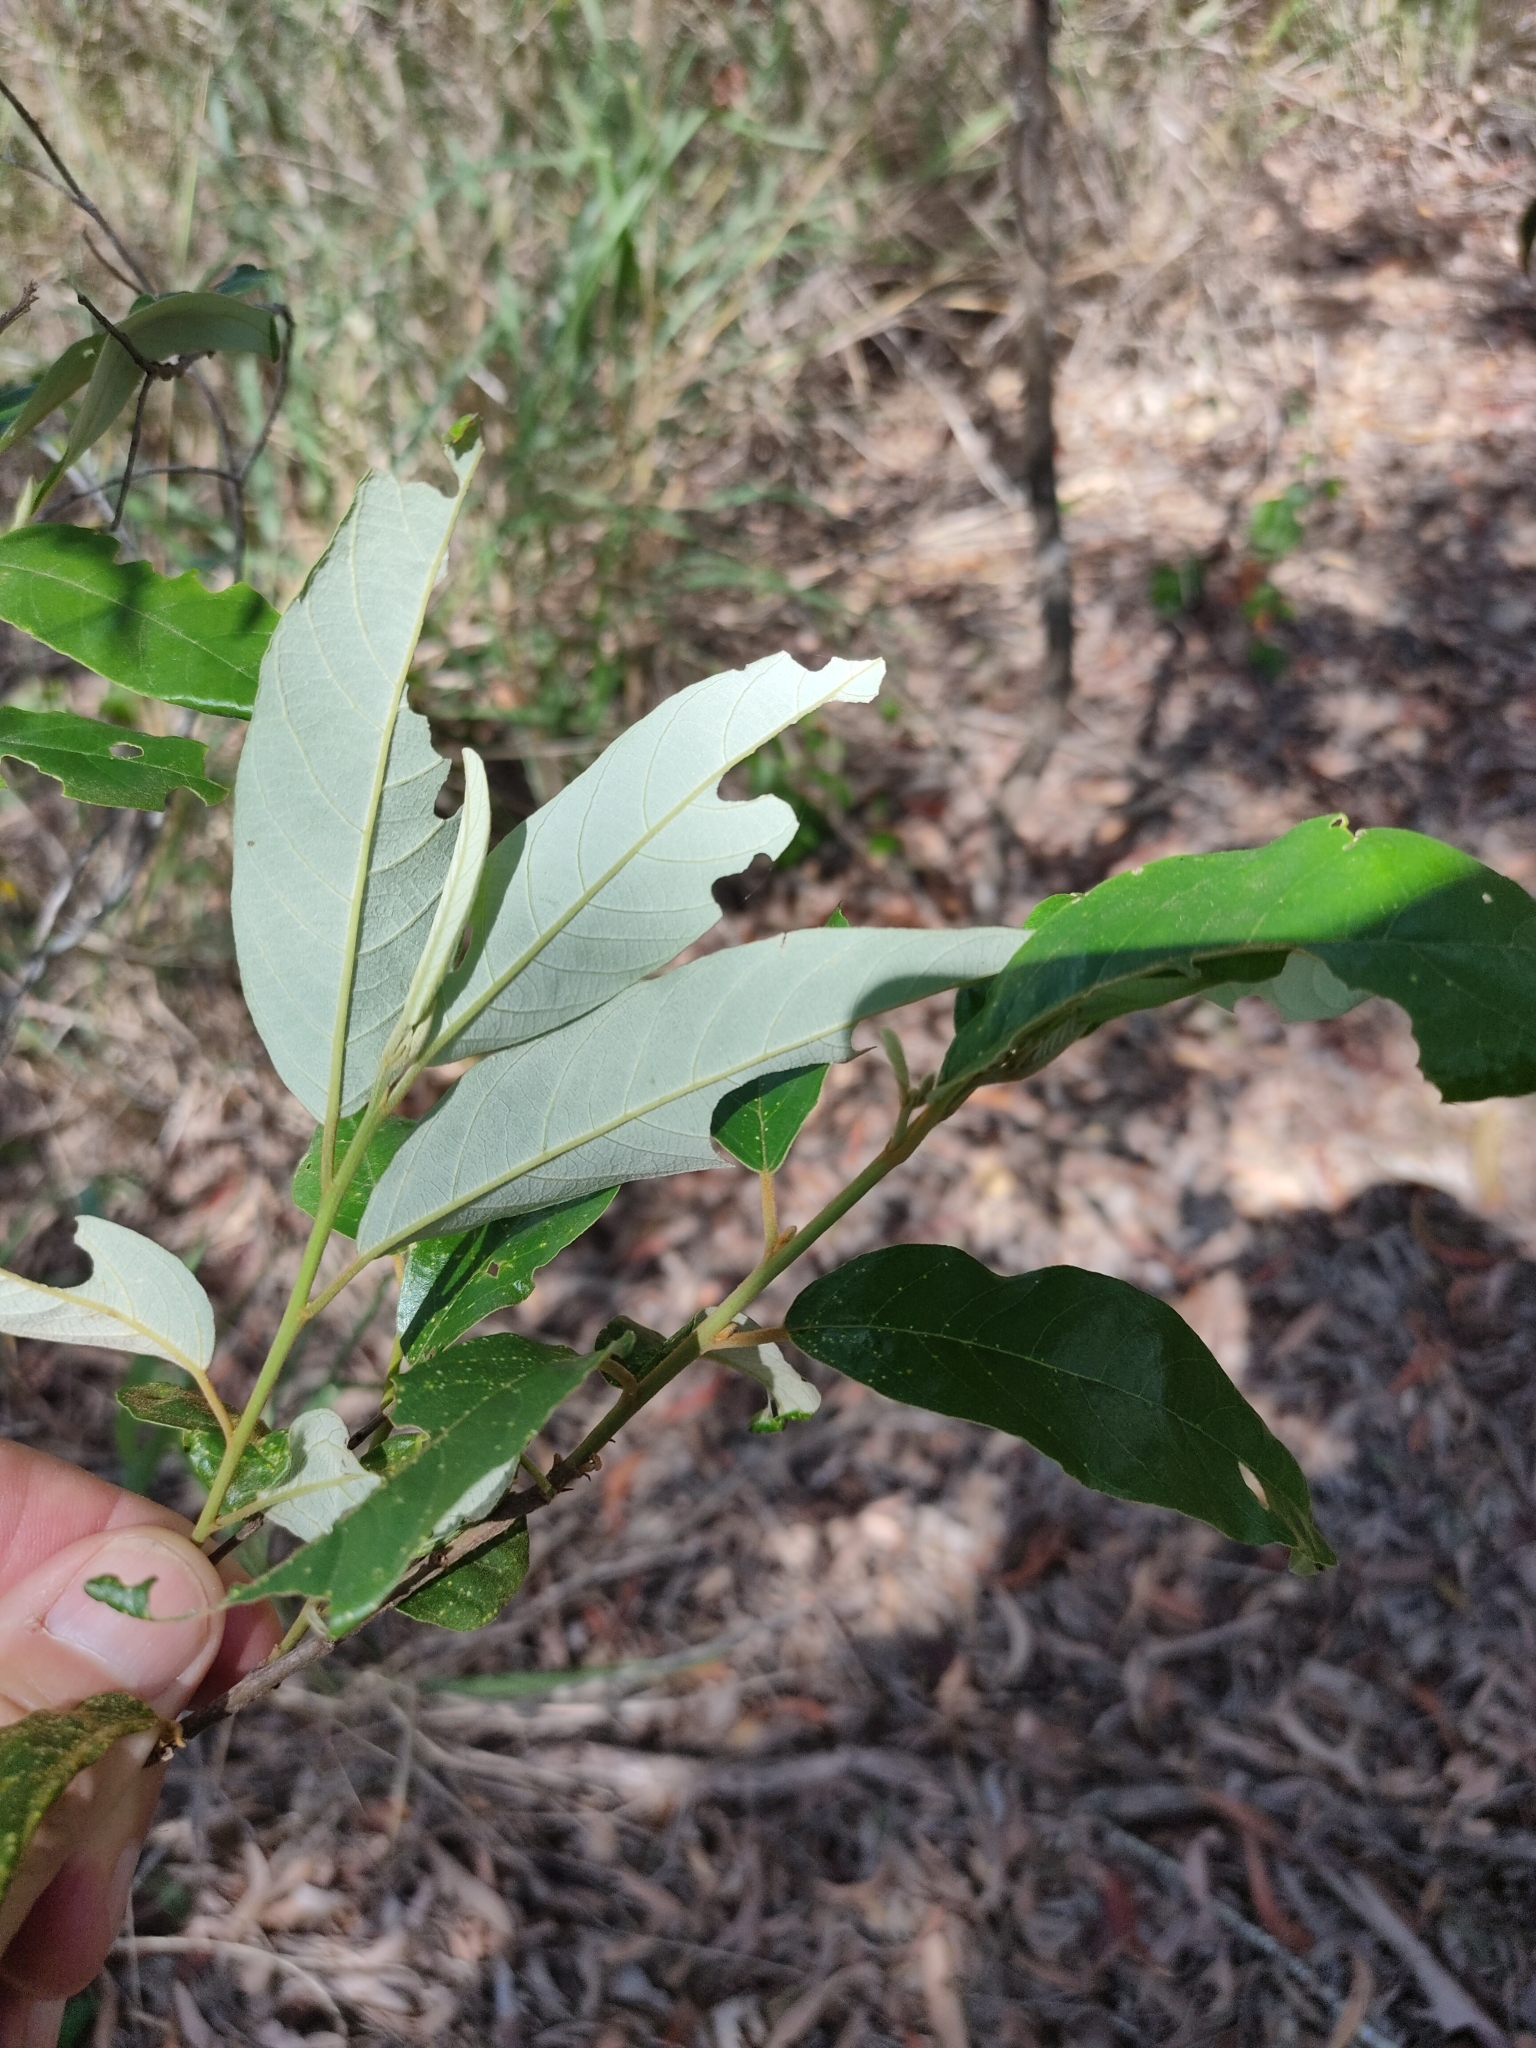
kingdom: Plantae
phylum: Tracheophyta
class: Magnoliopsida
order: Rosales
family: Rhamnaceae
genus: Alphitonia
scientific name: Alphitonia excelsa
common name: Red ash
